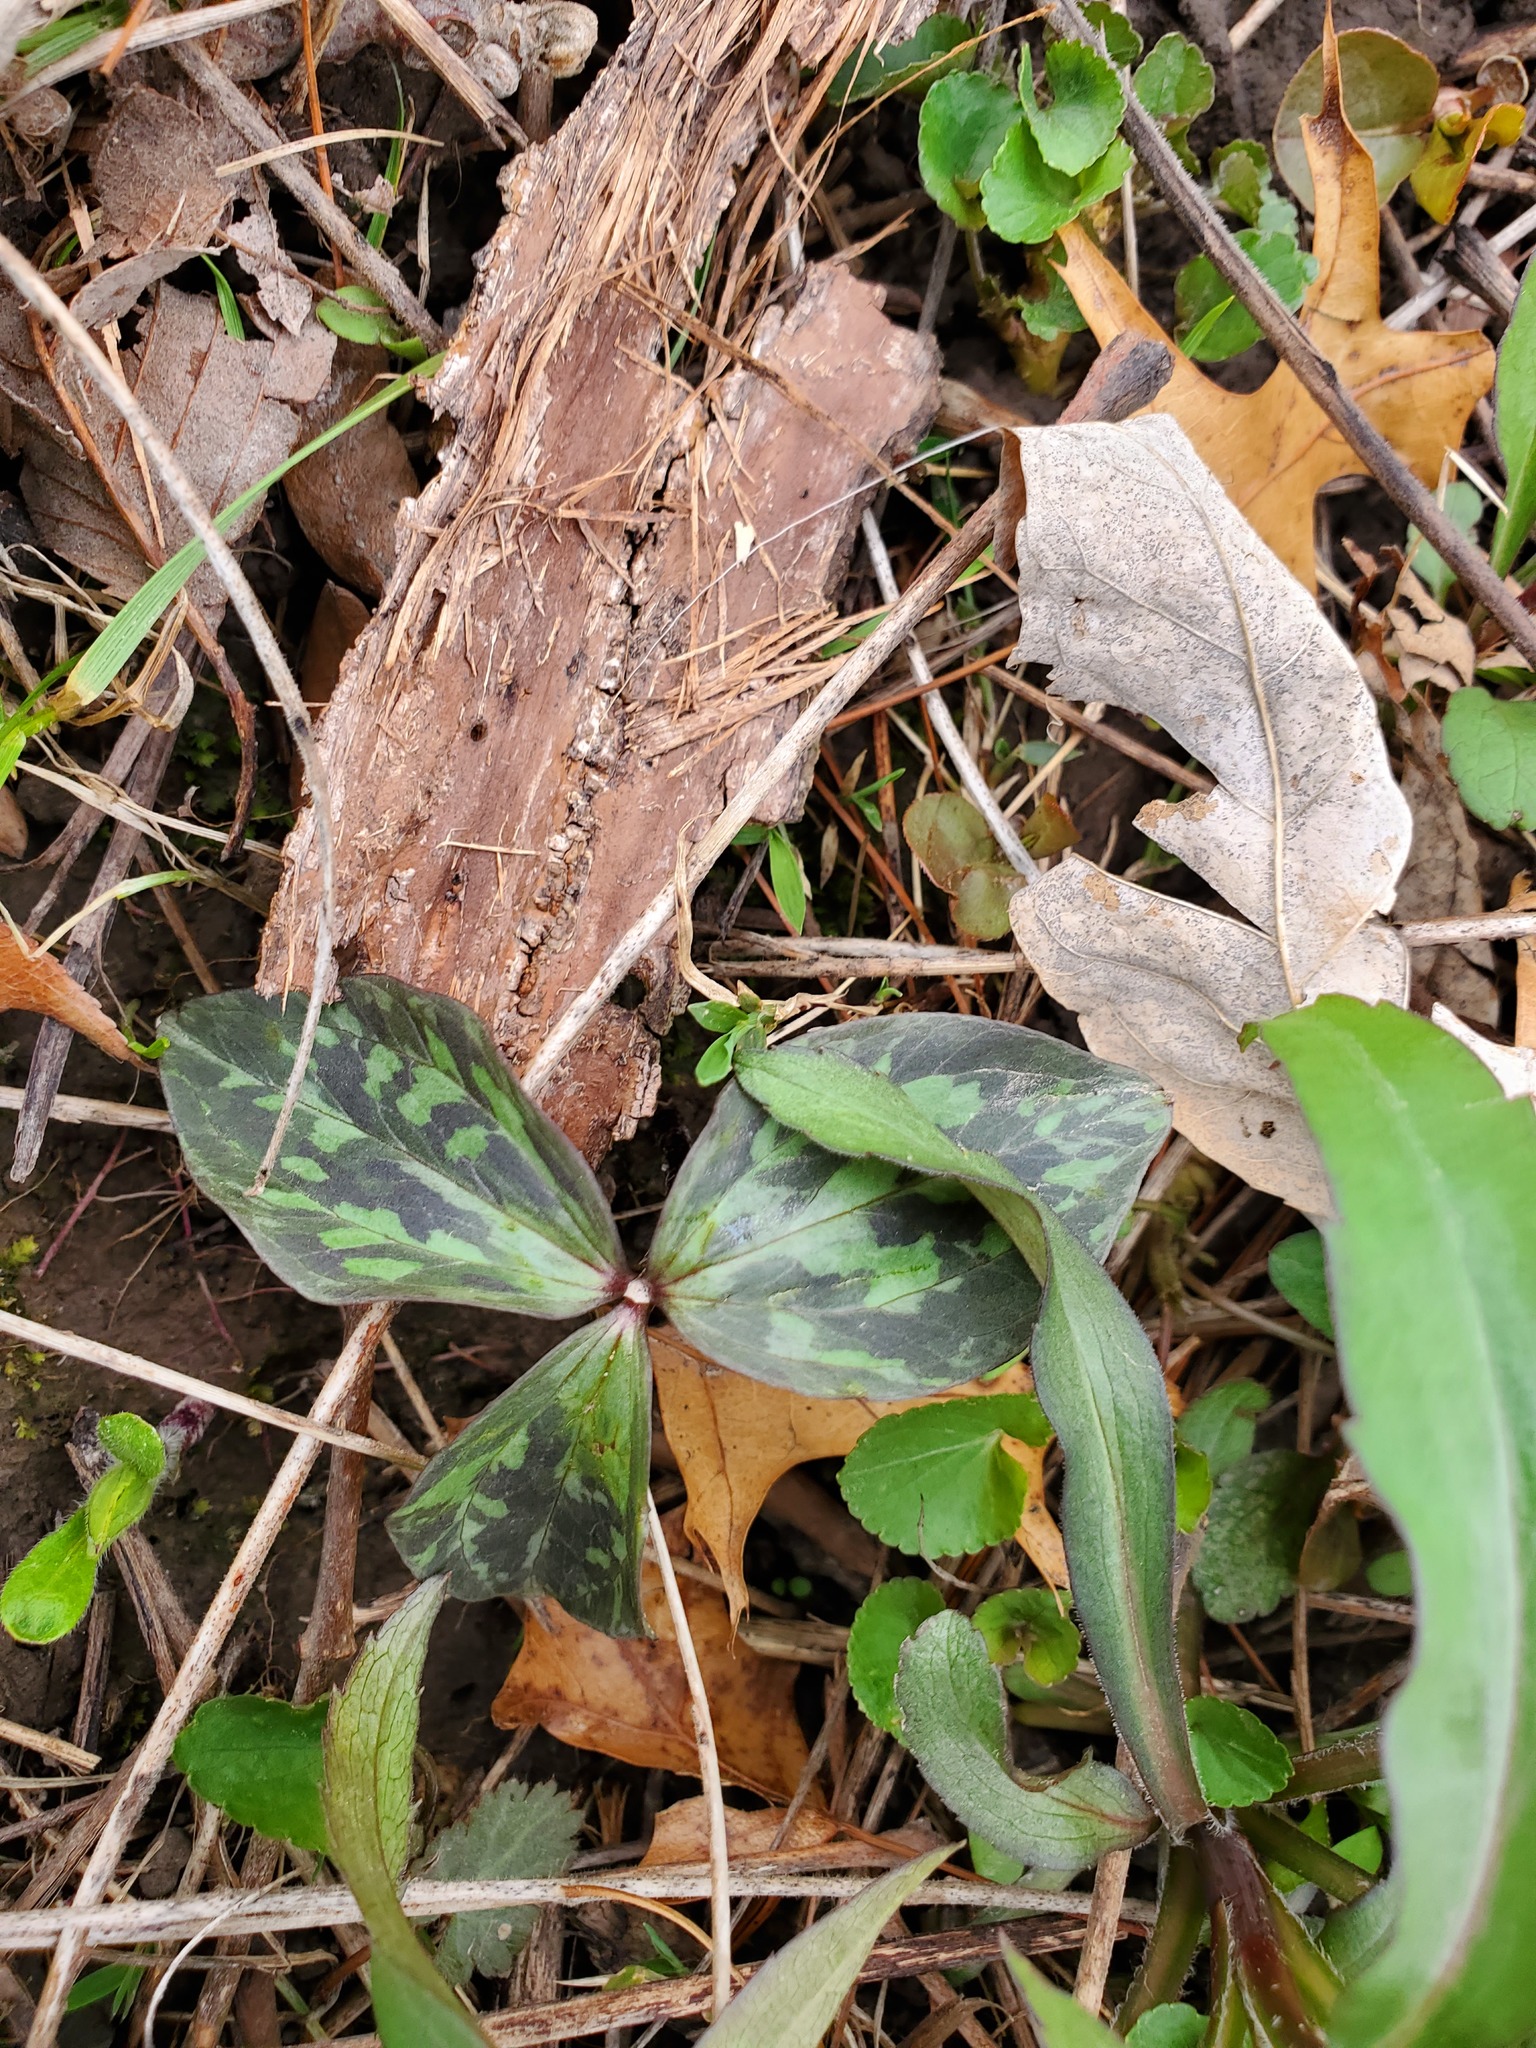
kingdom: Plantae
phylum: Tracheophyta
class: Liliopsida
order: Liliales
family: Melanthiaceae
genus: Trillium
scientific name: Trillium recurvatum
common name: Bloody butcher
